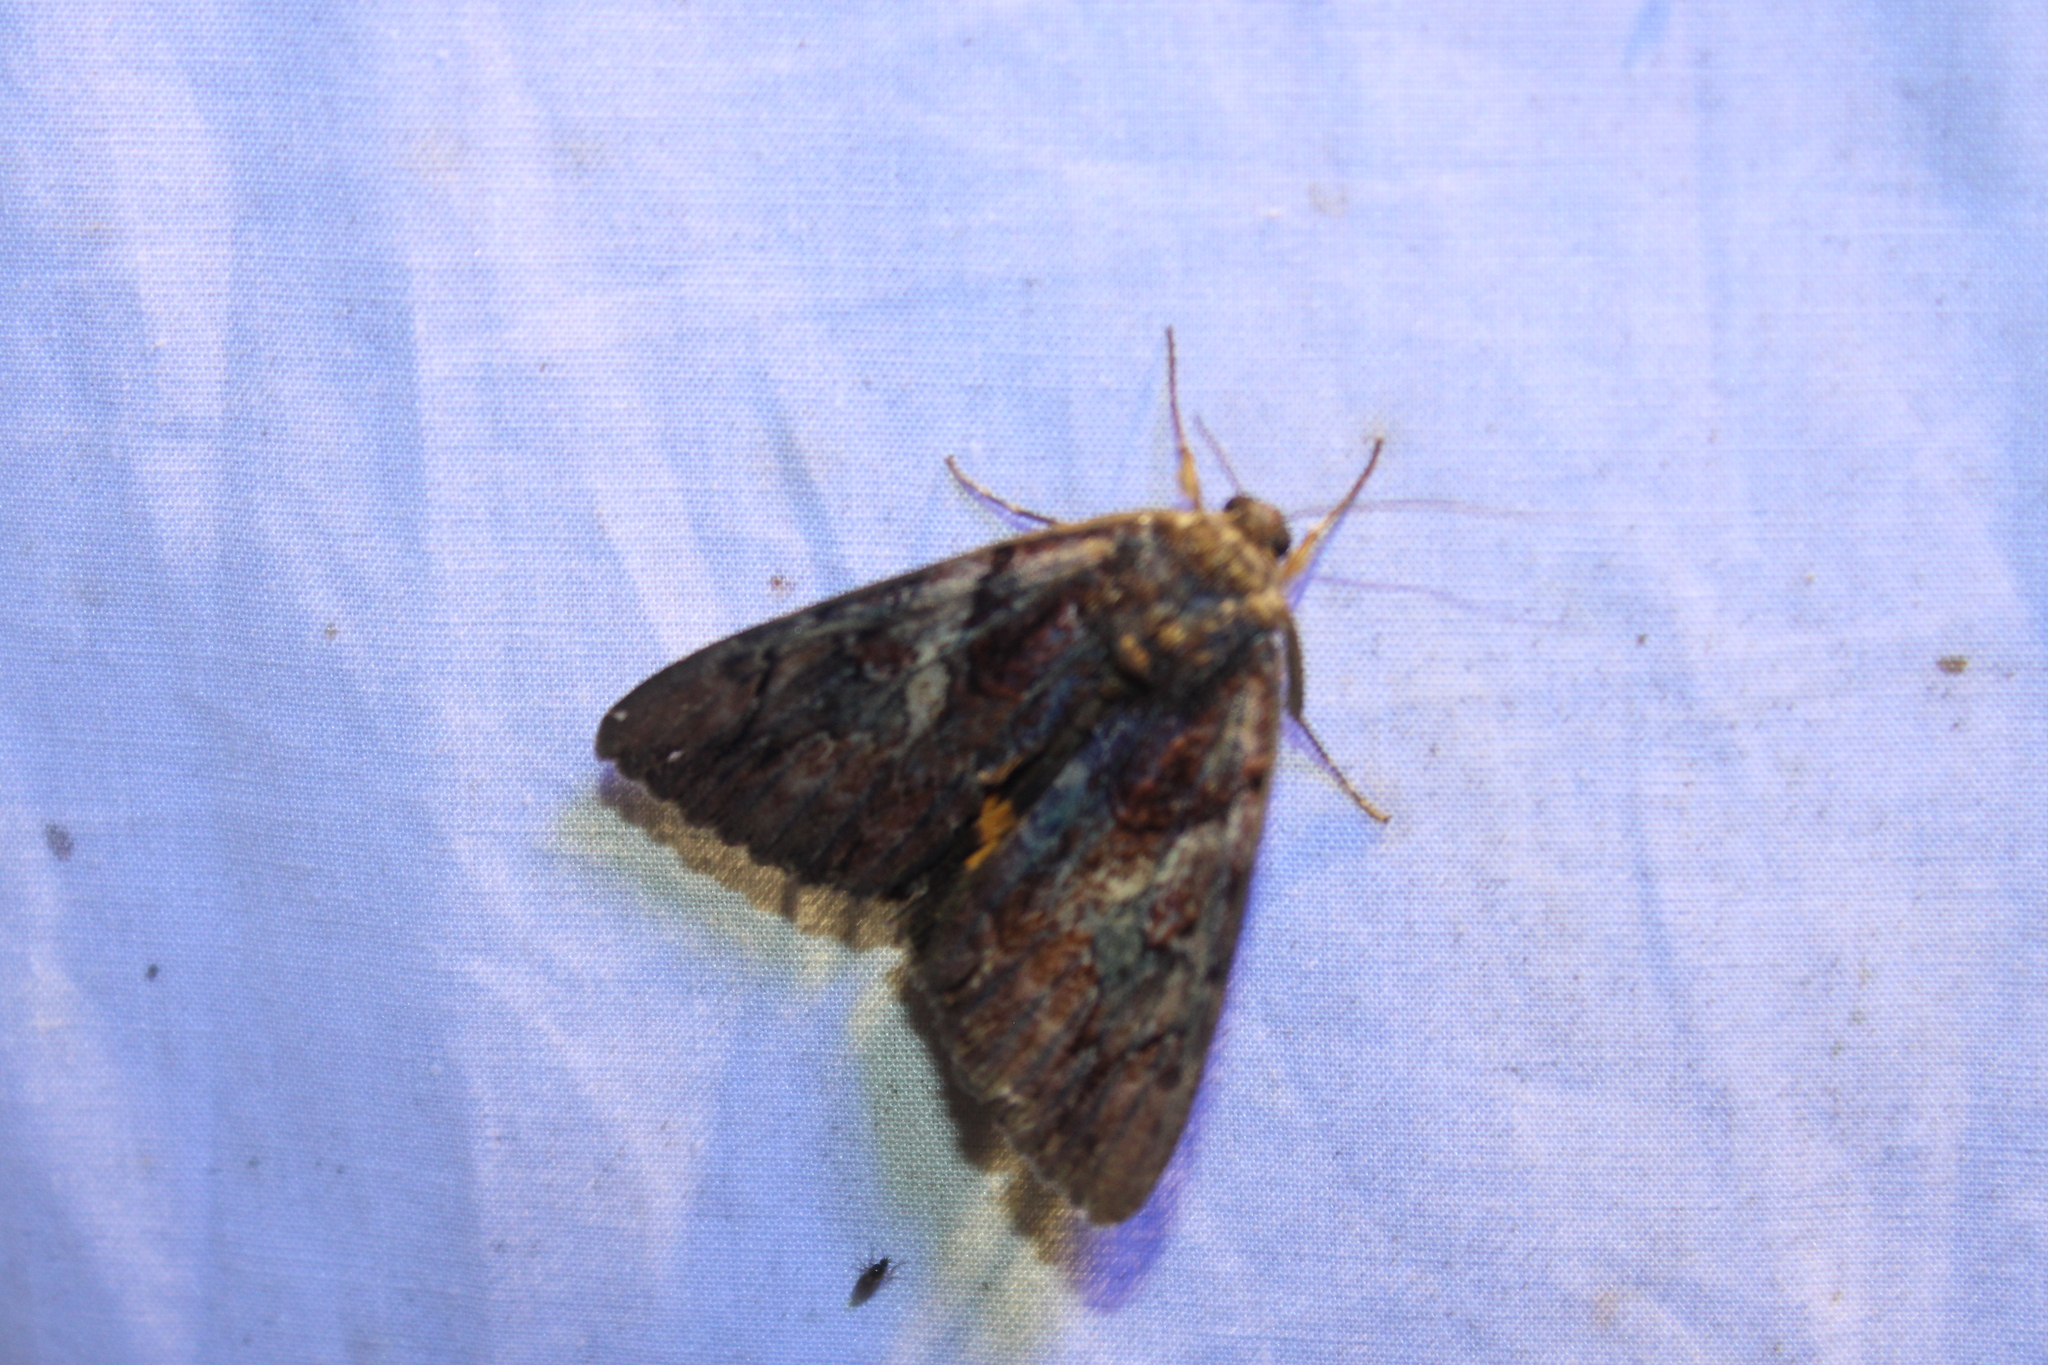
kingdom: Animalia
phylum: Arthropoda
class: Insecta
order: Lepidoptera
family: Erebidae
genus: Catocala
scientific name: Catocala muliercula
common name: The little wife underwing
